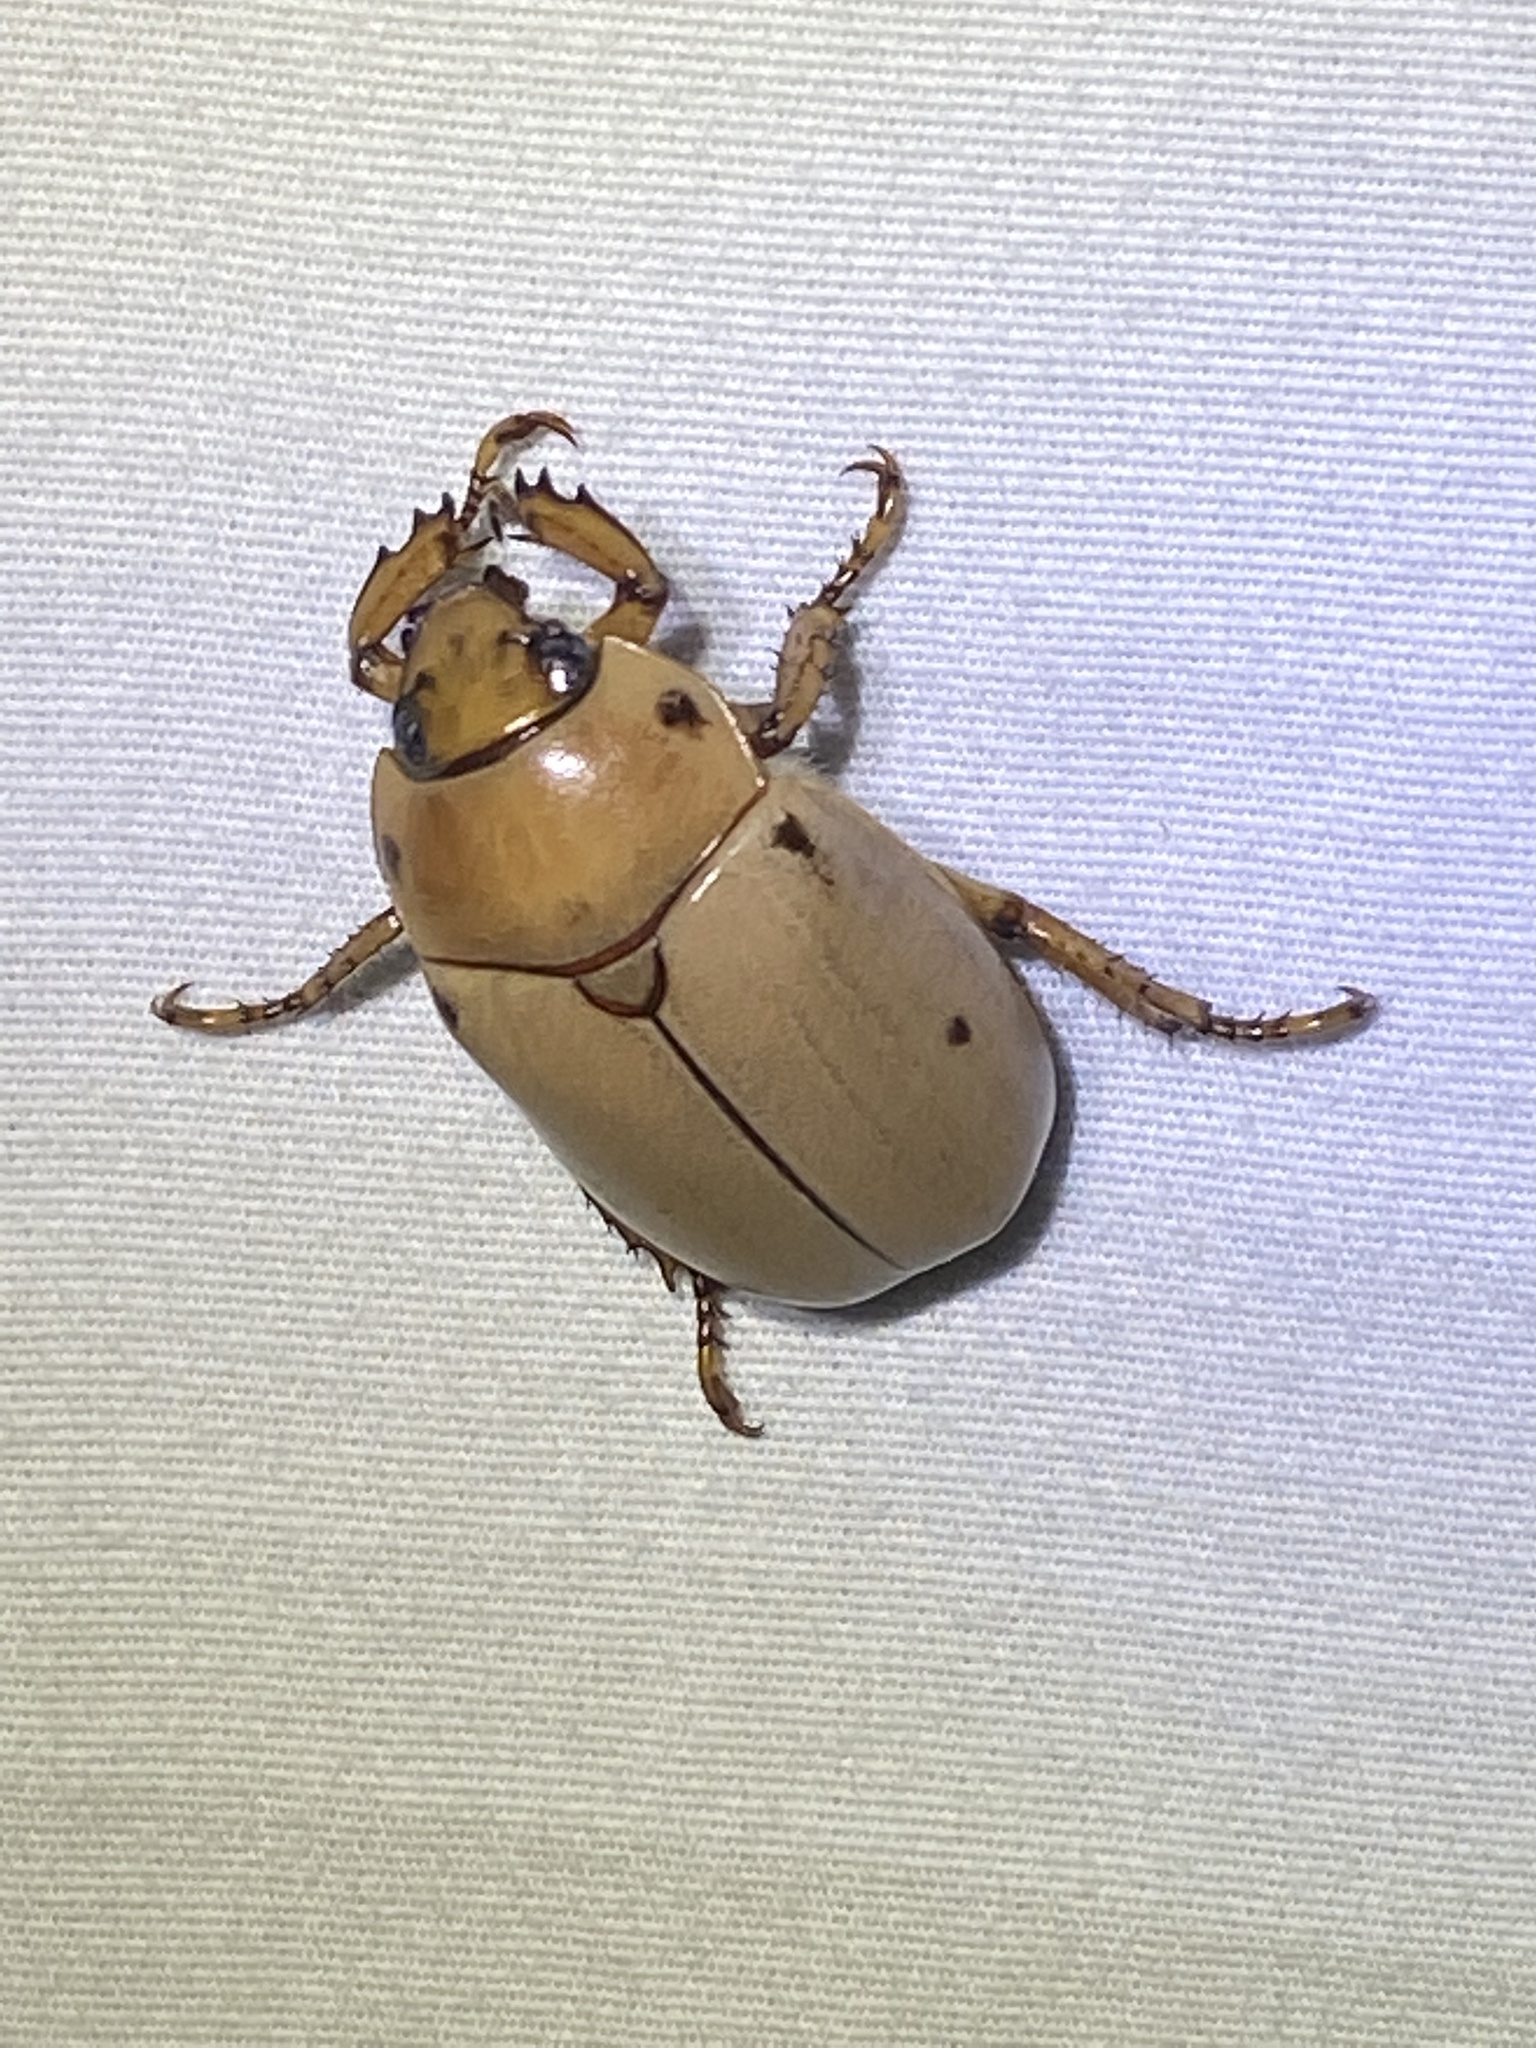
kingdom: Animalia
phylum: Arthropoda
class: Insecta
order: Coleoptera
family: Scarabaeidae
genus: Pelidnota
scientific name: Pelidnota punctata
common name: Grapevine beetle
